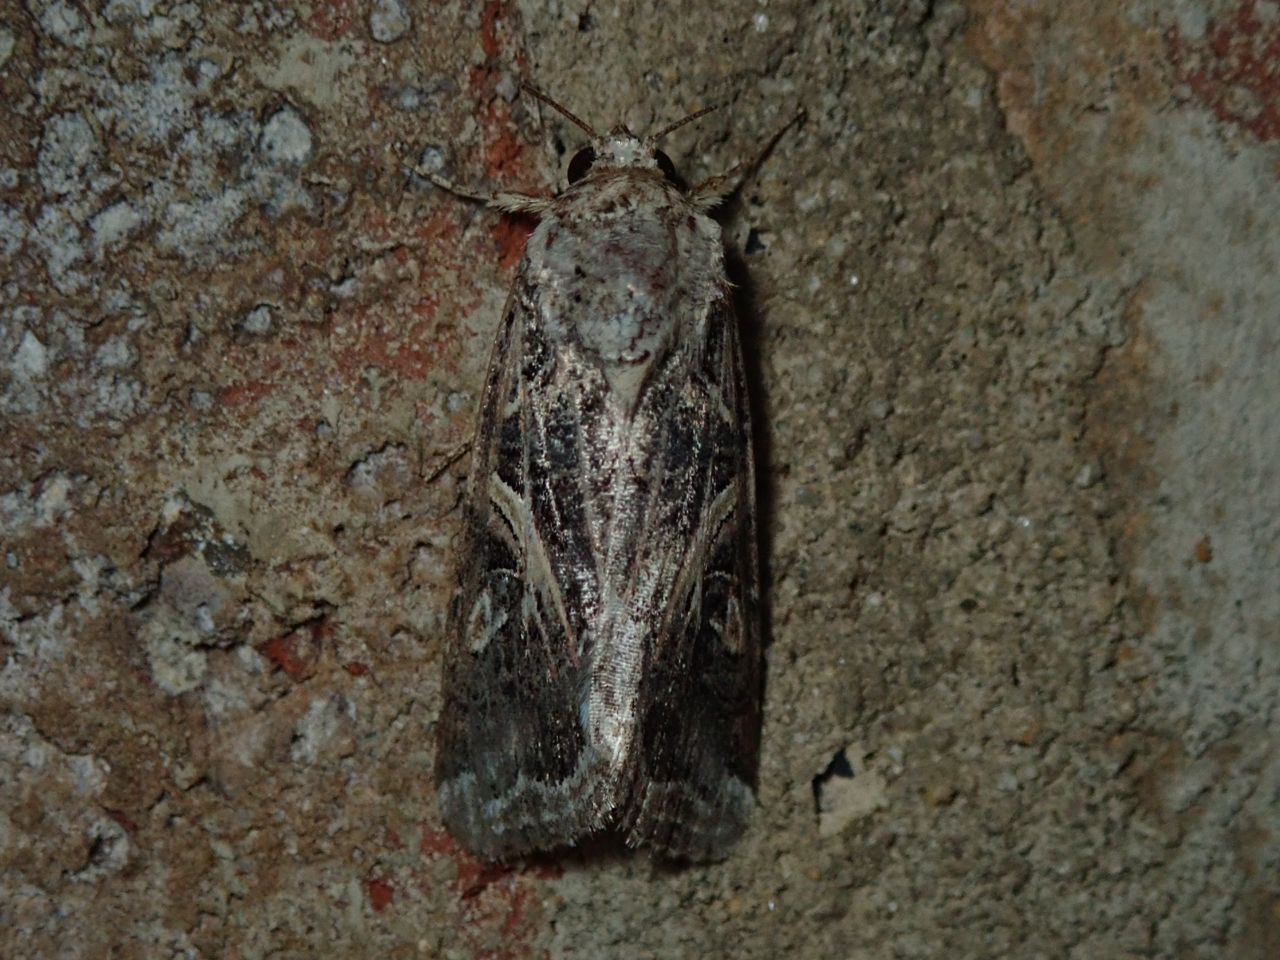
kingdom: Animalia
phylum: Arthropoda
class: Insecta
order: Lepidoptera
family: Noctuidae
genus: Spodoptera
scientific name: Spodoptera ornithogalli
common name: Yellow-striped armyworm
